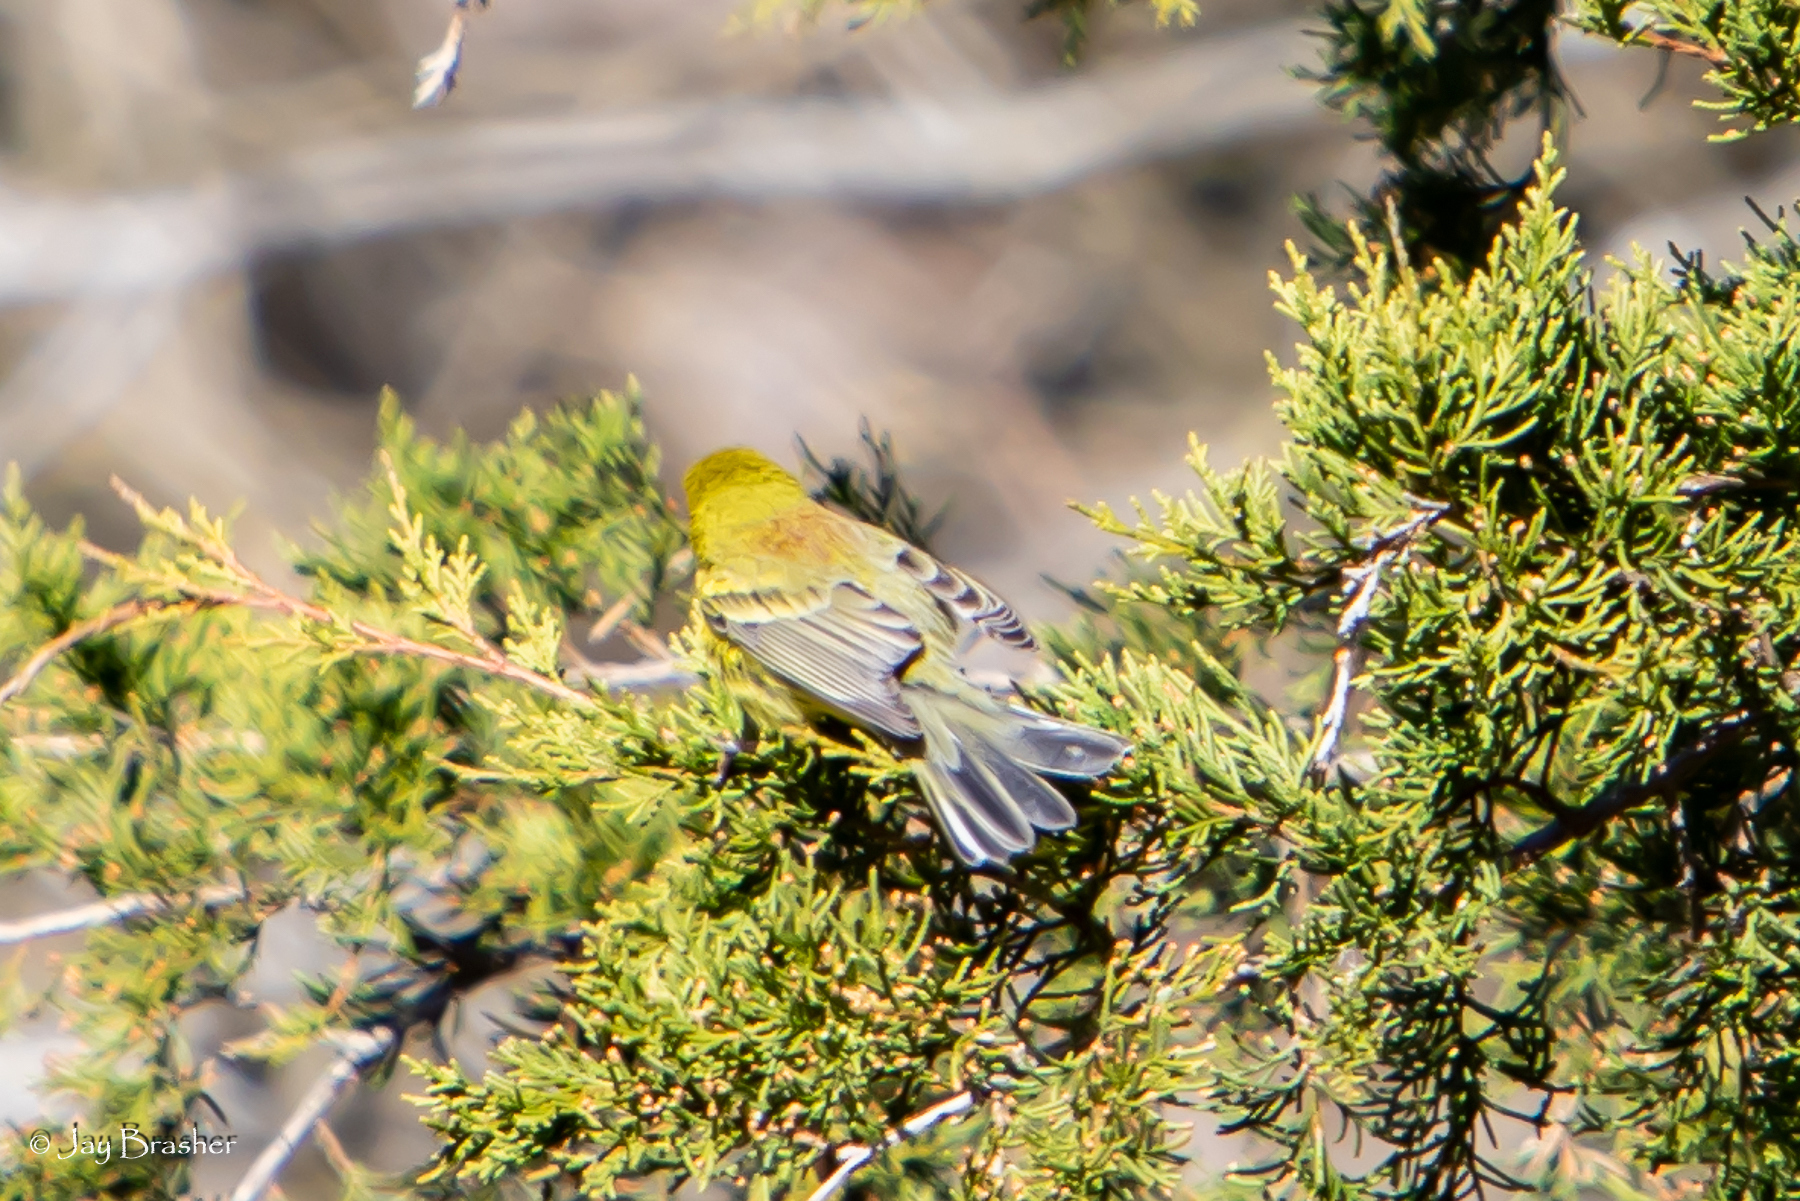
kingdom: Animalia
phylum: Chordata
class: Aves
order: Passeriformes
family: Parulidae
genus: Setophaga
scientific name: Setophaga discolor
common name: Prairie warbler
